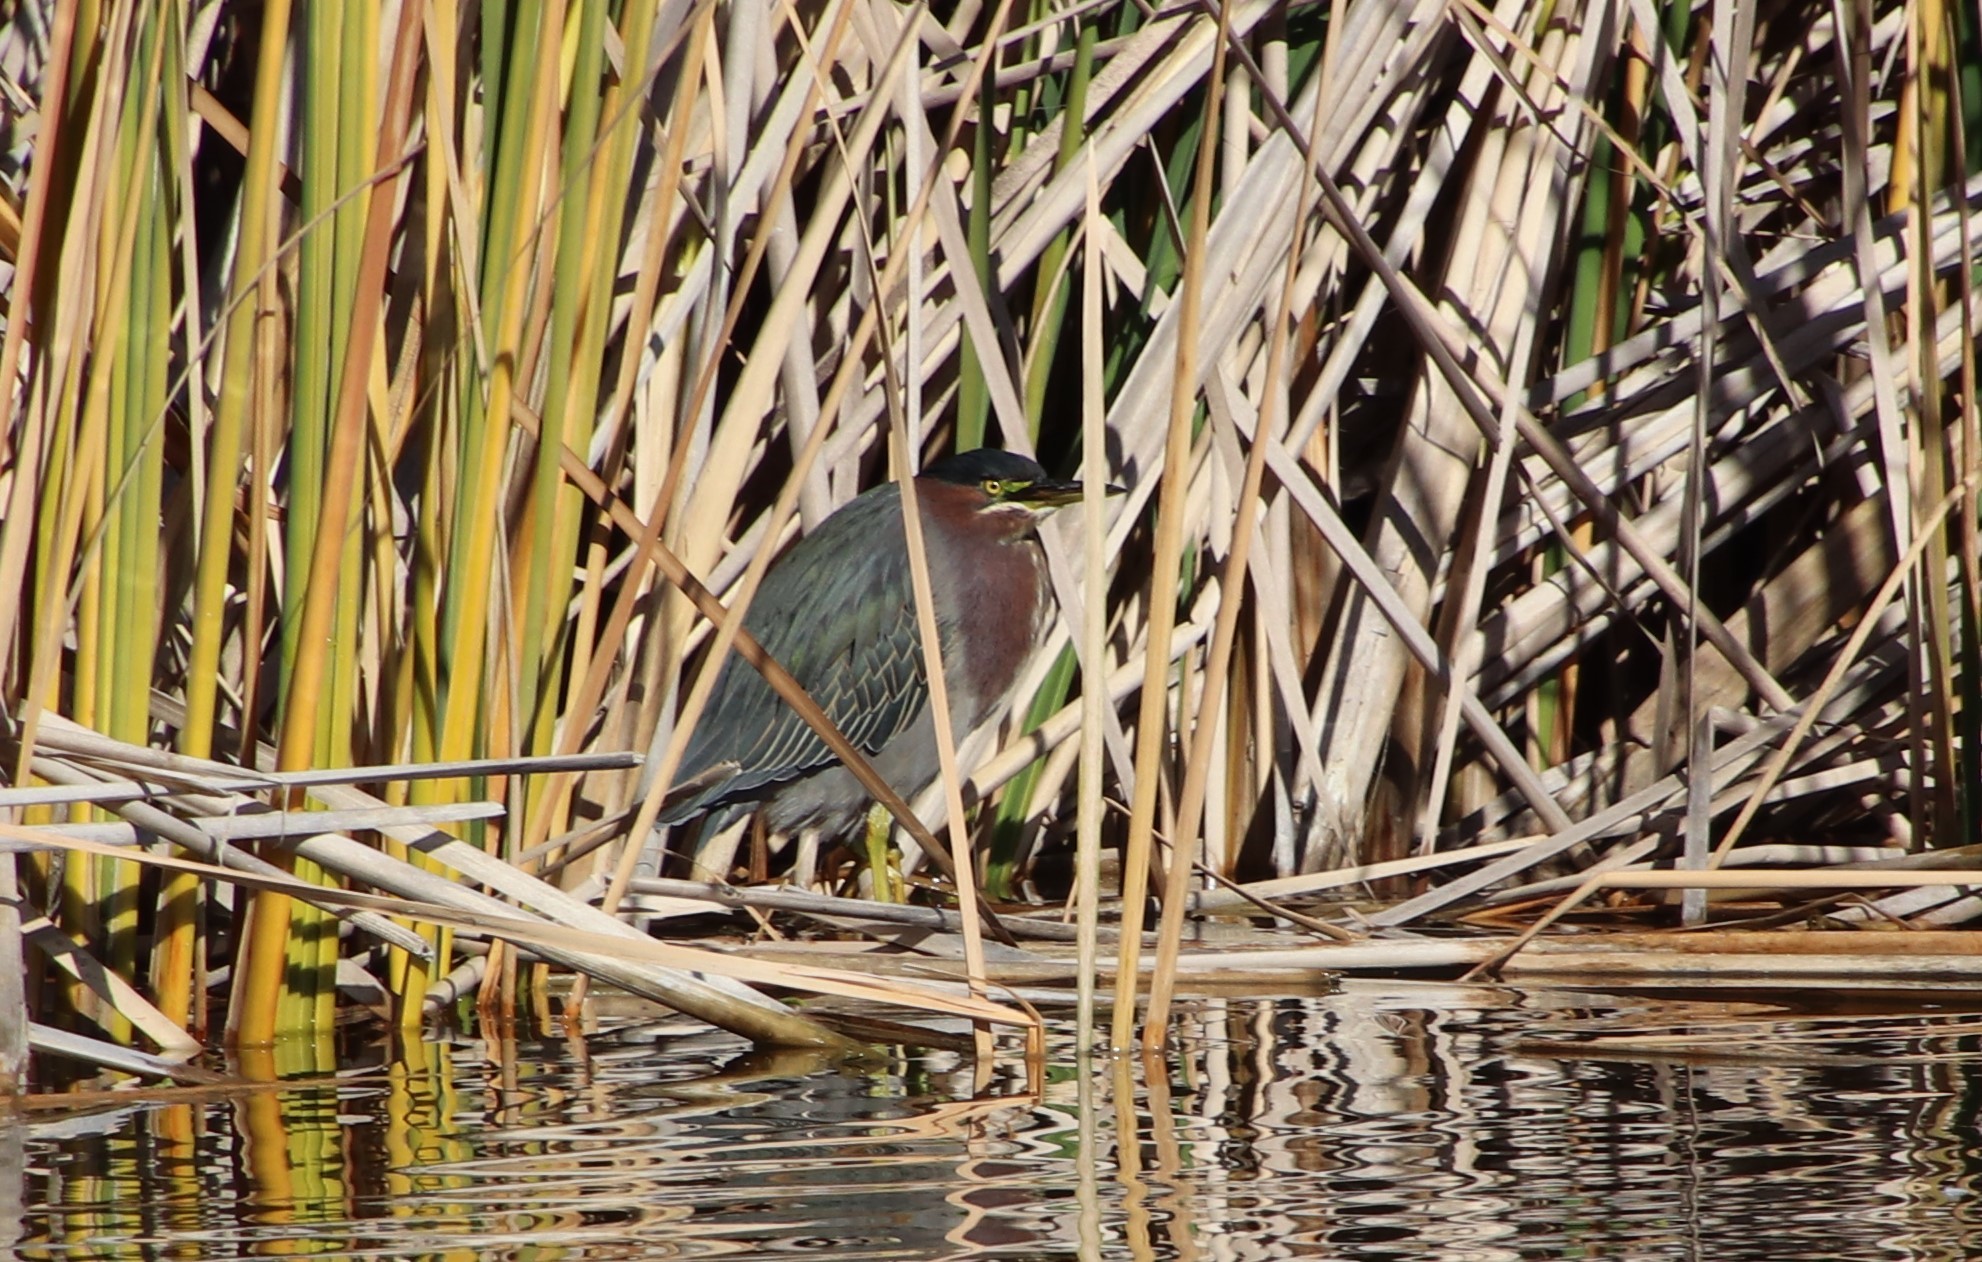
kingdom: Animalia
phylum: Chordata
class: Aves
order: Pelecaniformes
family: Ardeidae
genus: Butorides
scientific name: Butorides virescens
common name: Green heron
